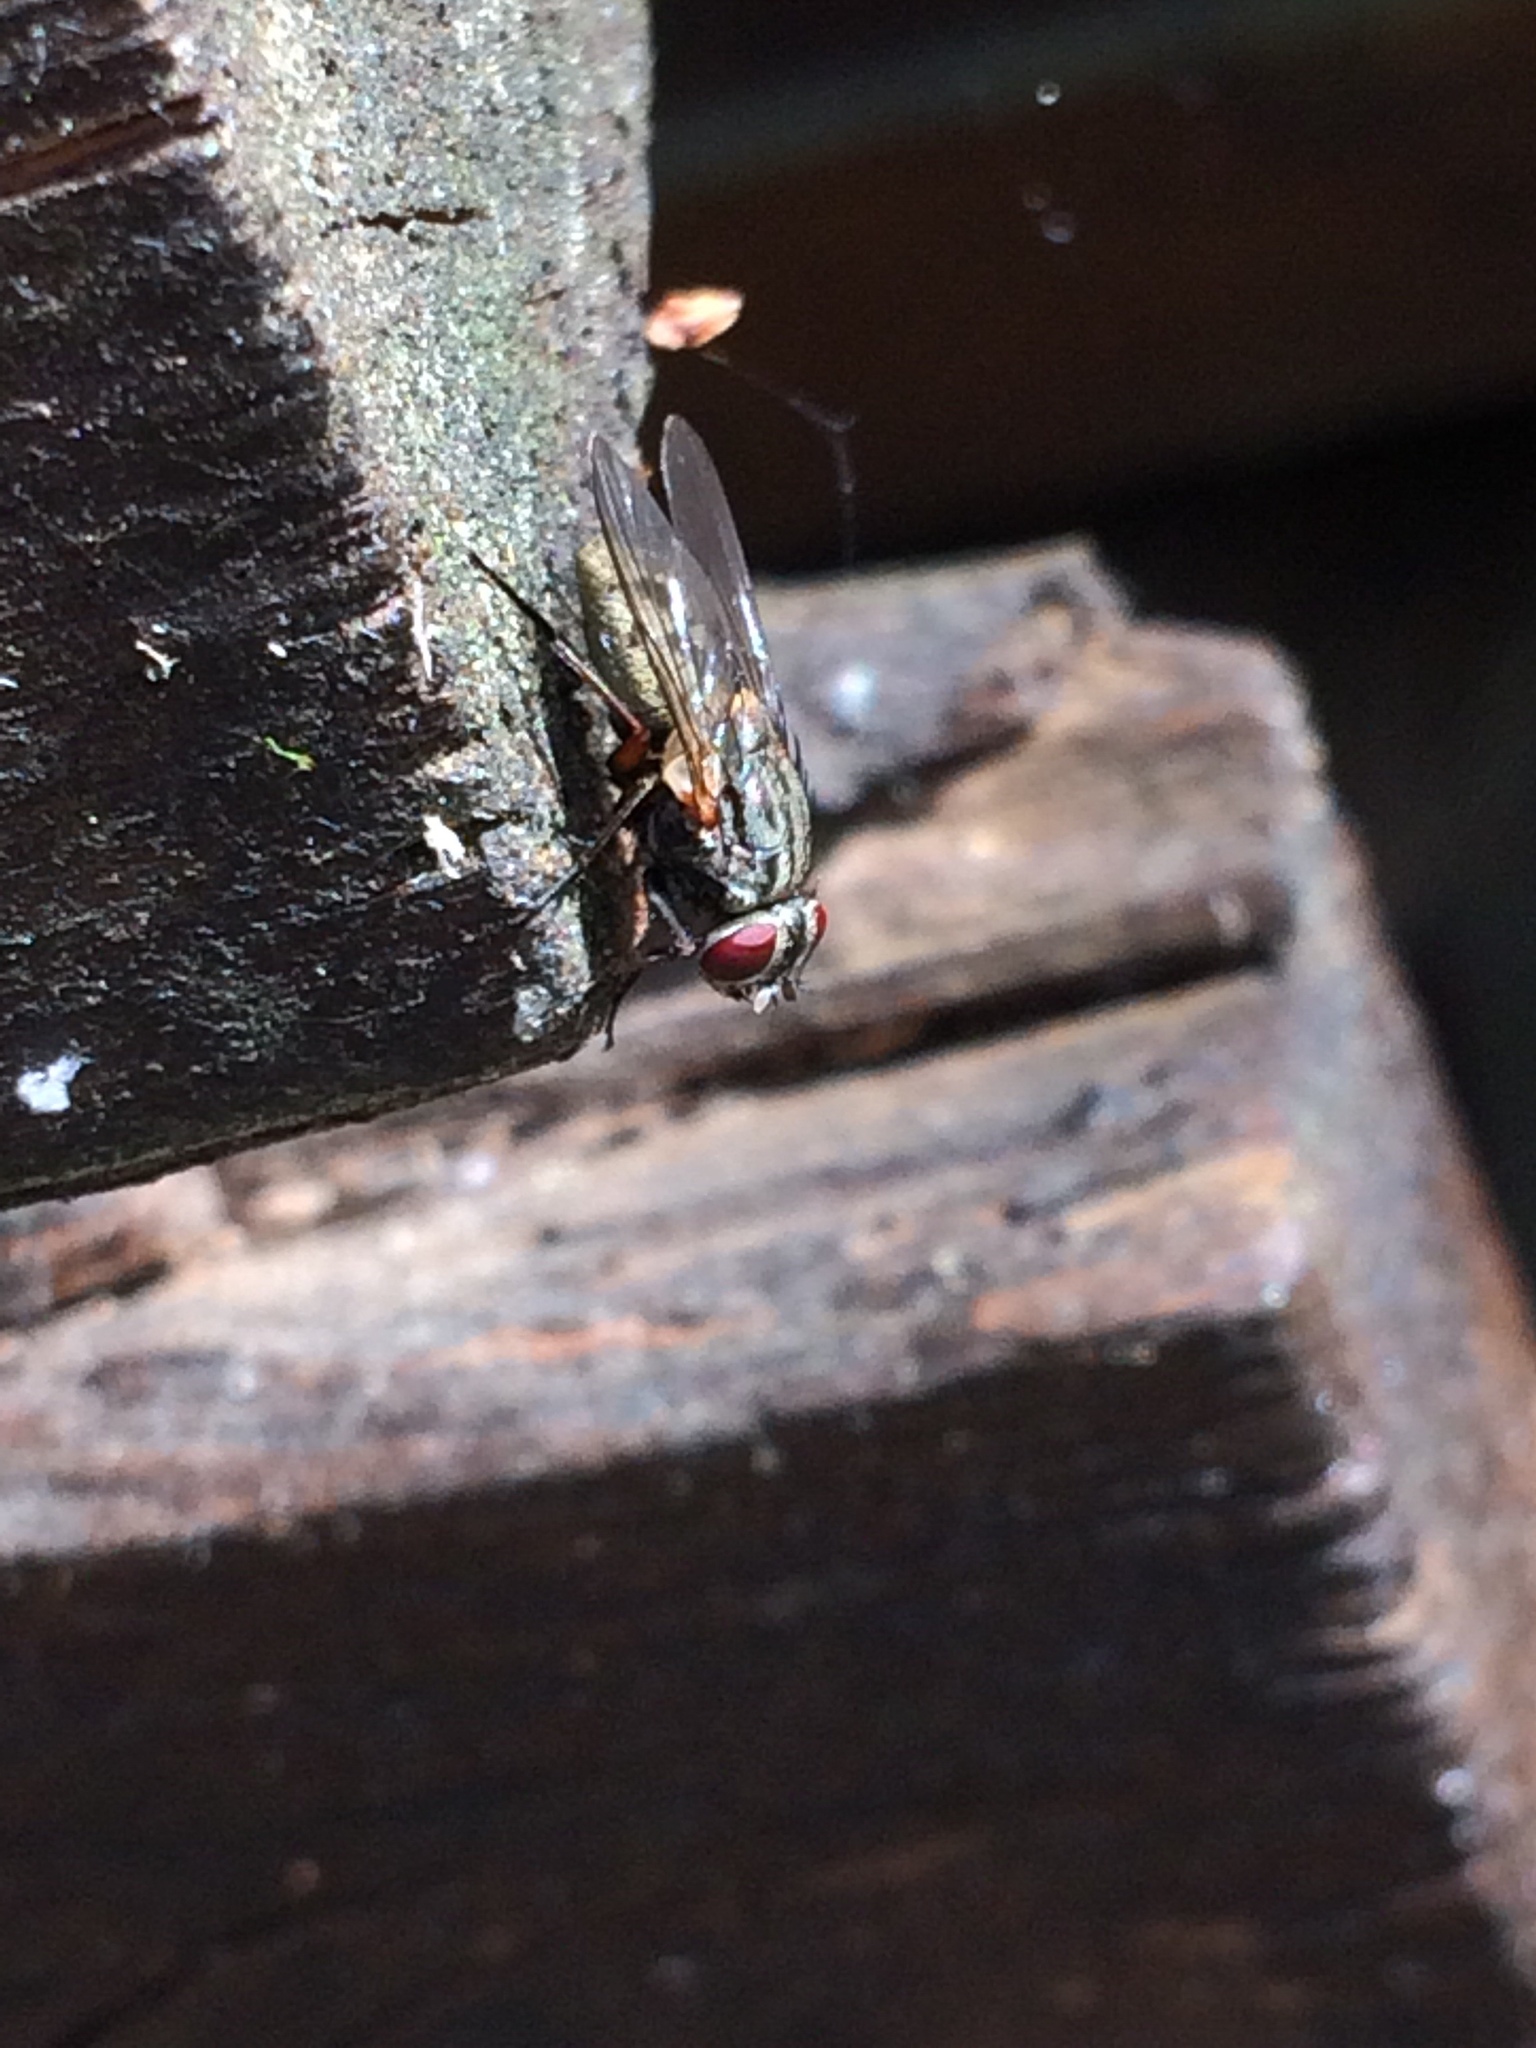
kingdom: Animalia
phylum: Arthropoda
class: Insecta
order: Diptera
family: Muscidae
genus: Muscina
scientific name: Muscina stabulans
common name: False stable fly
